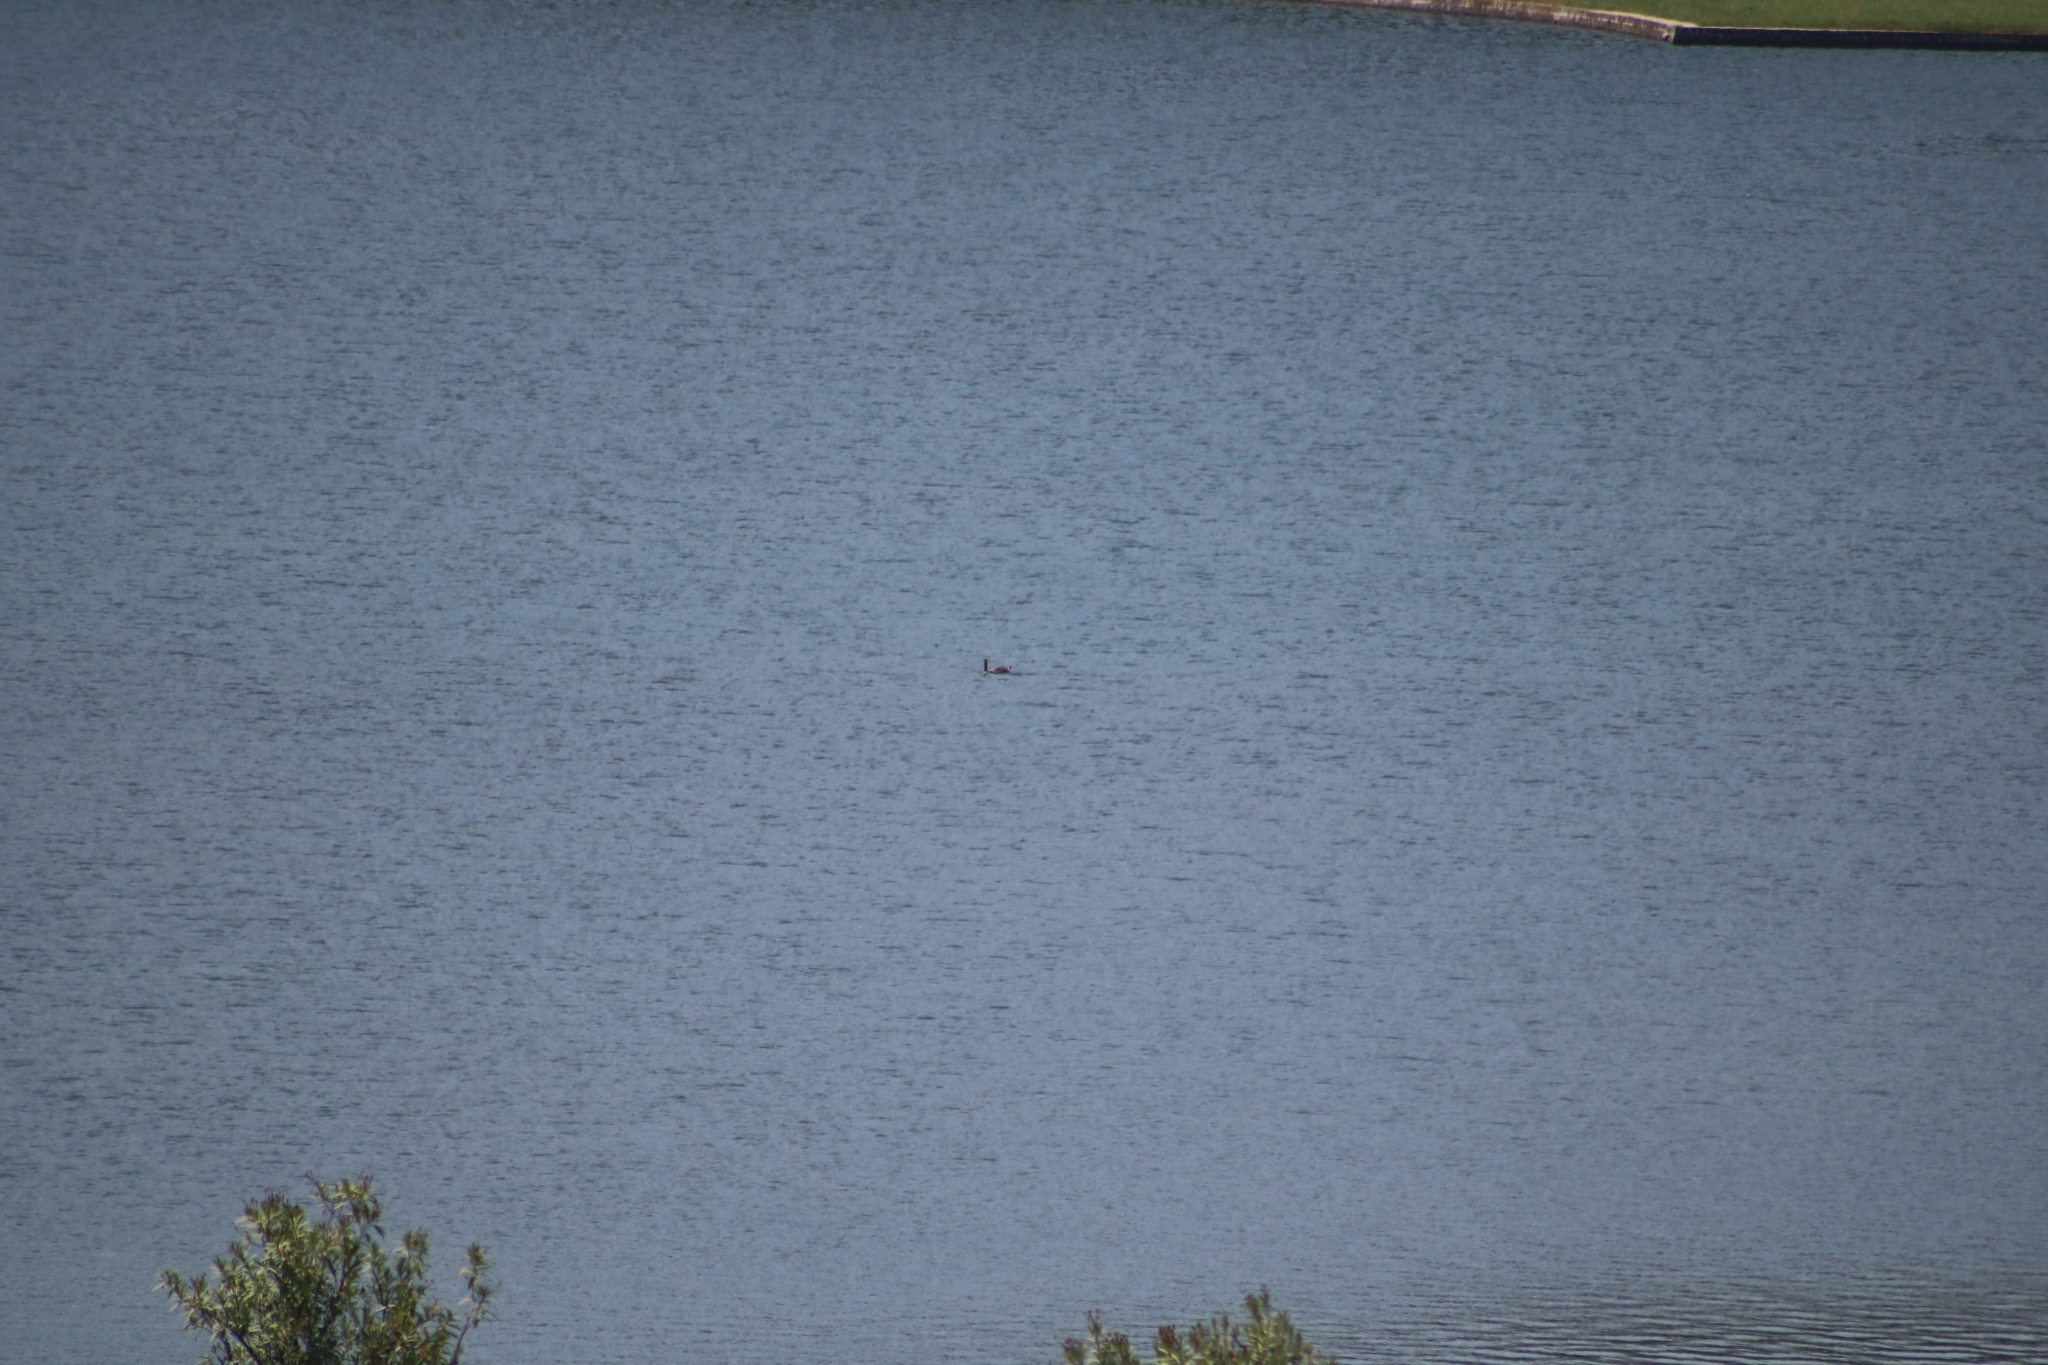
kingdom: Animalia
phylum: Chordata
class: Aves
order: Anseriformes
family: Anatidae
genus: Branta
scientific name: Branta canadensis
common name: Canada goose
